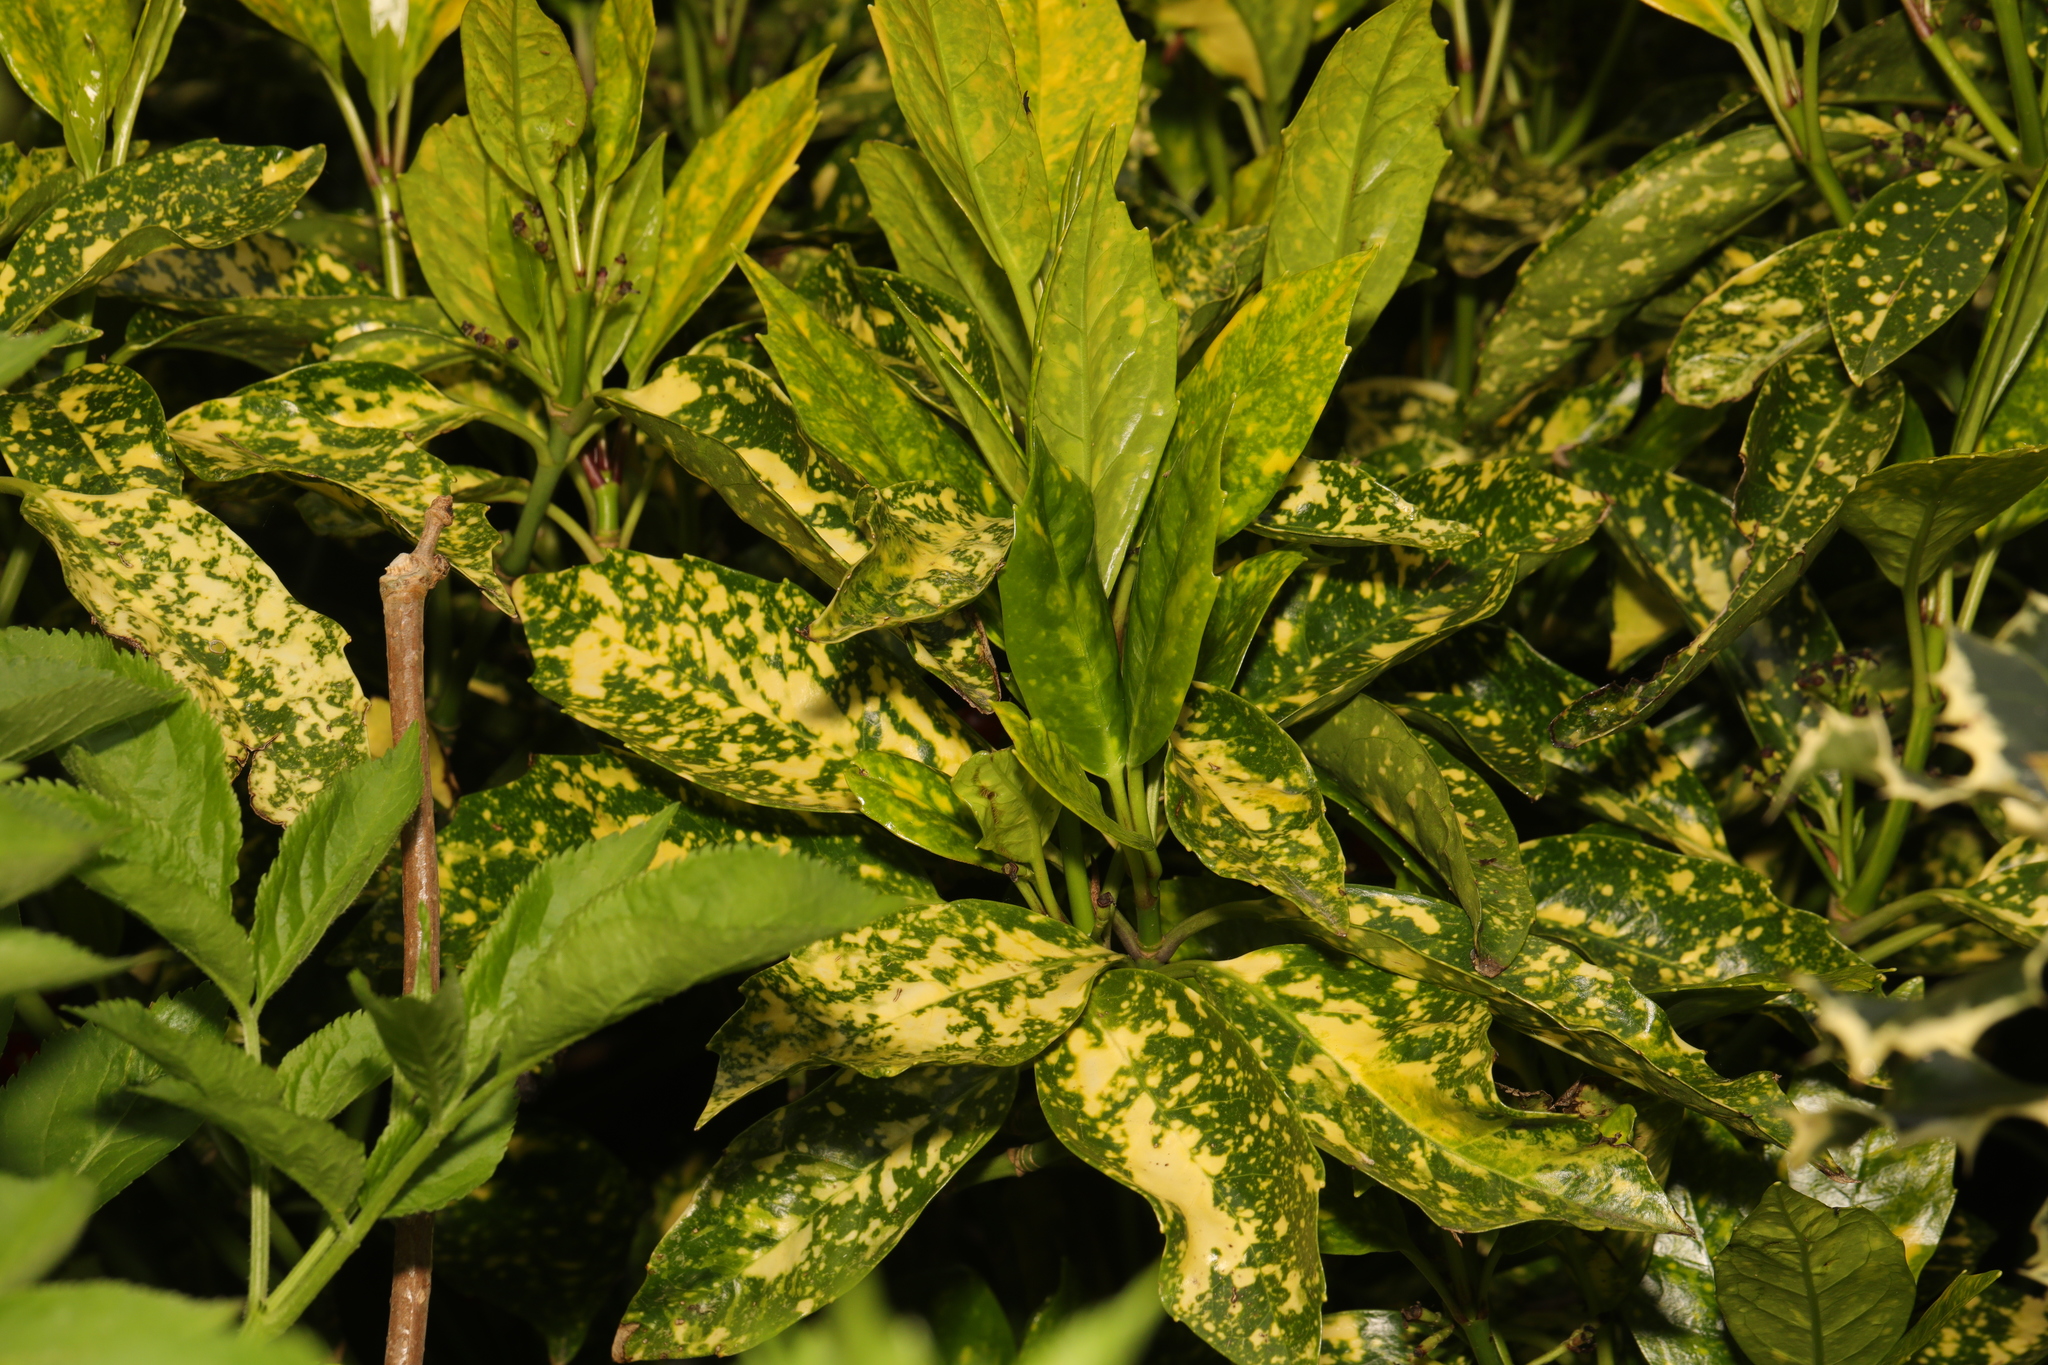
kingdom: Plantae
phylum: Tracheophyta
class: Magnoliopsida
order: Garryales
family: Garryaceae
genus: Aucuba
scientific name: Aucuba japonica
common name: Spotted-laurel
